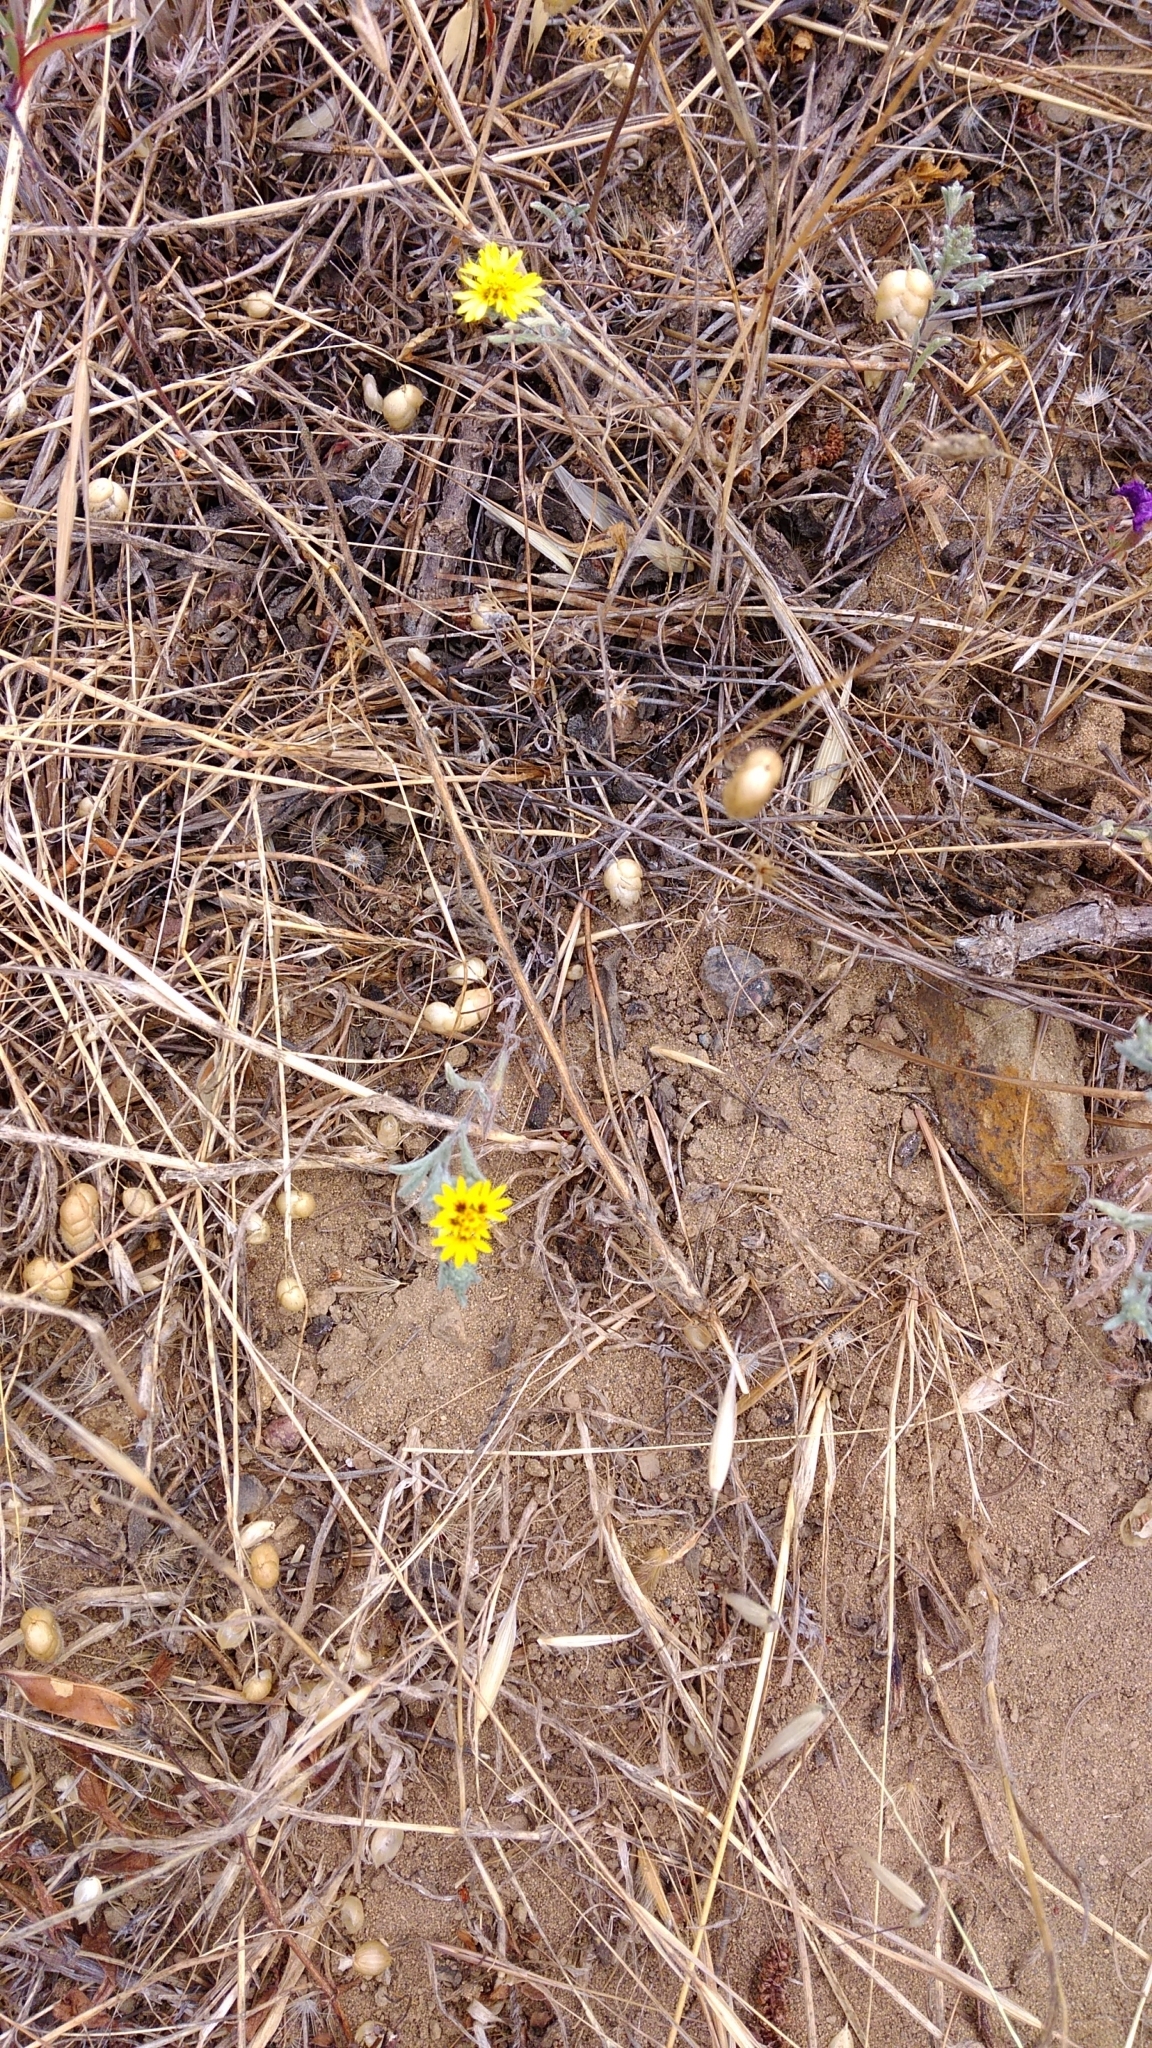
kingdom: Plantae
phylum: Tracheophyta
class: Magnoliopsida
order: Asterales
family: Asteraceae
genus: Lessingia
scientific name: Lessingia germanorum
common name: San francisco lessingia
